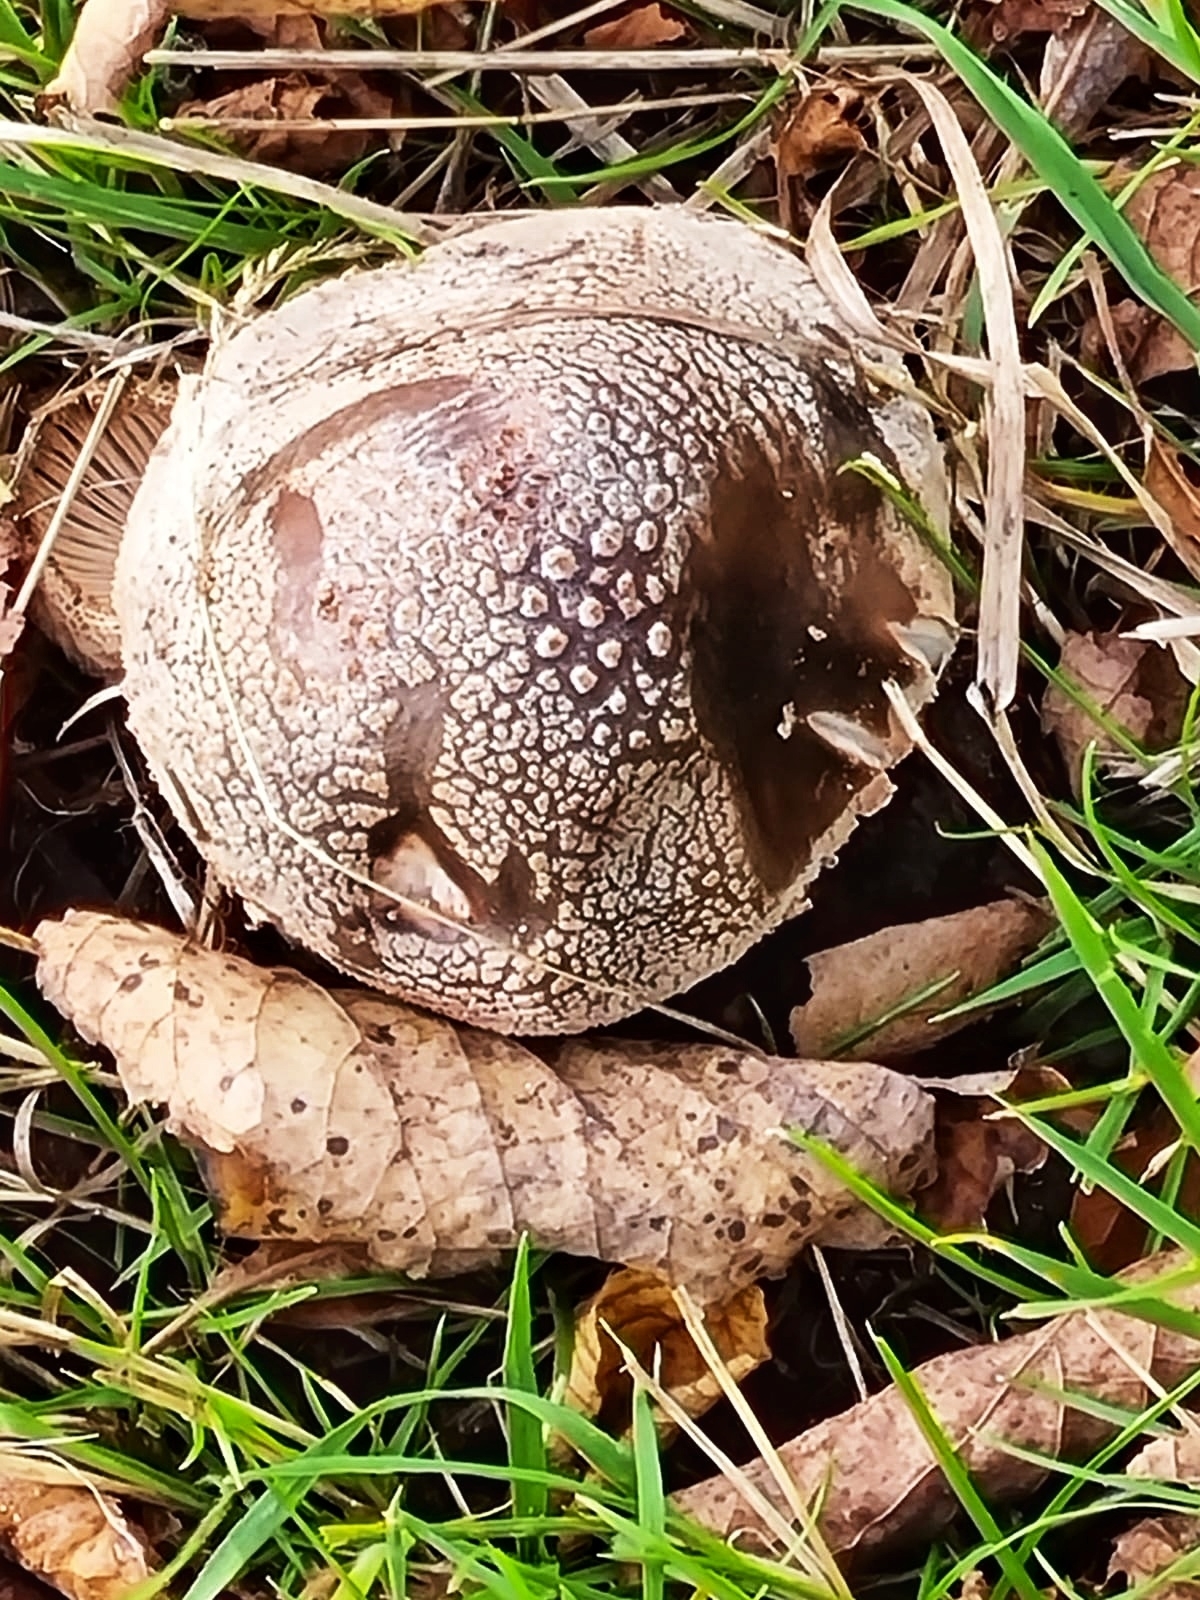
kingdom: Fungi
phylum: Basidiomycota
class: Agaricomycetes
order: Agaricales
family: Amanitaceae
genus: Amanita
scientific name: Amanita rubescens
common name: Blusher
